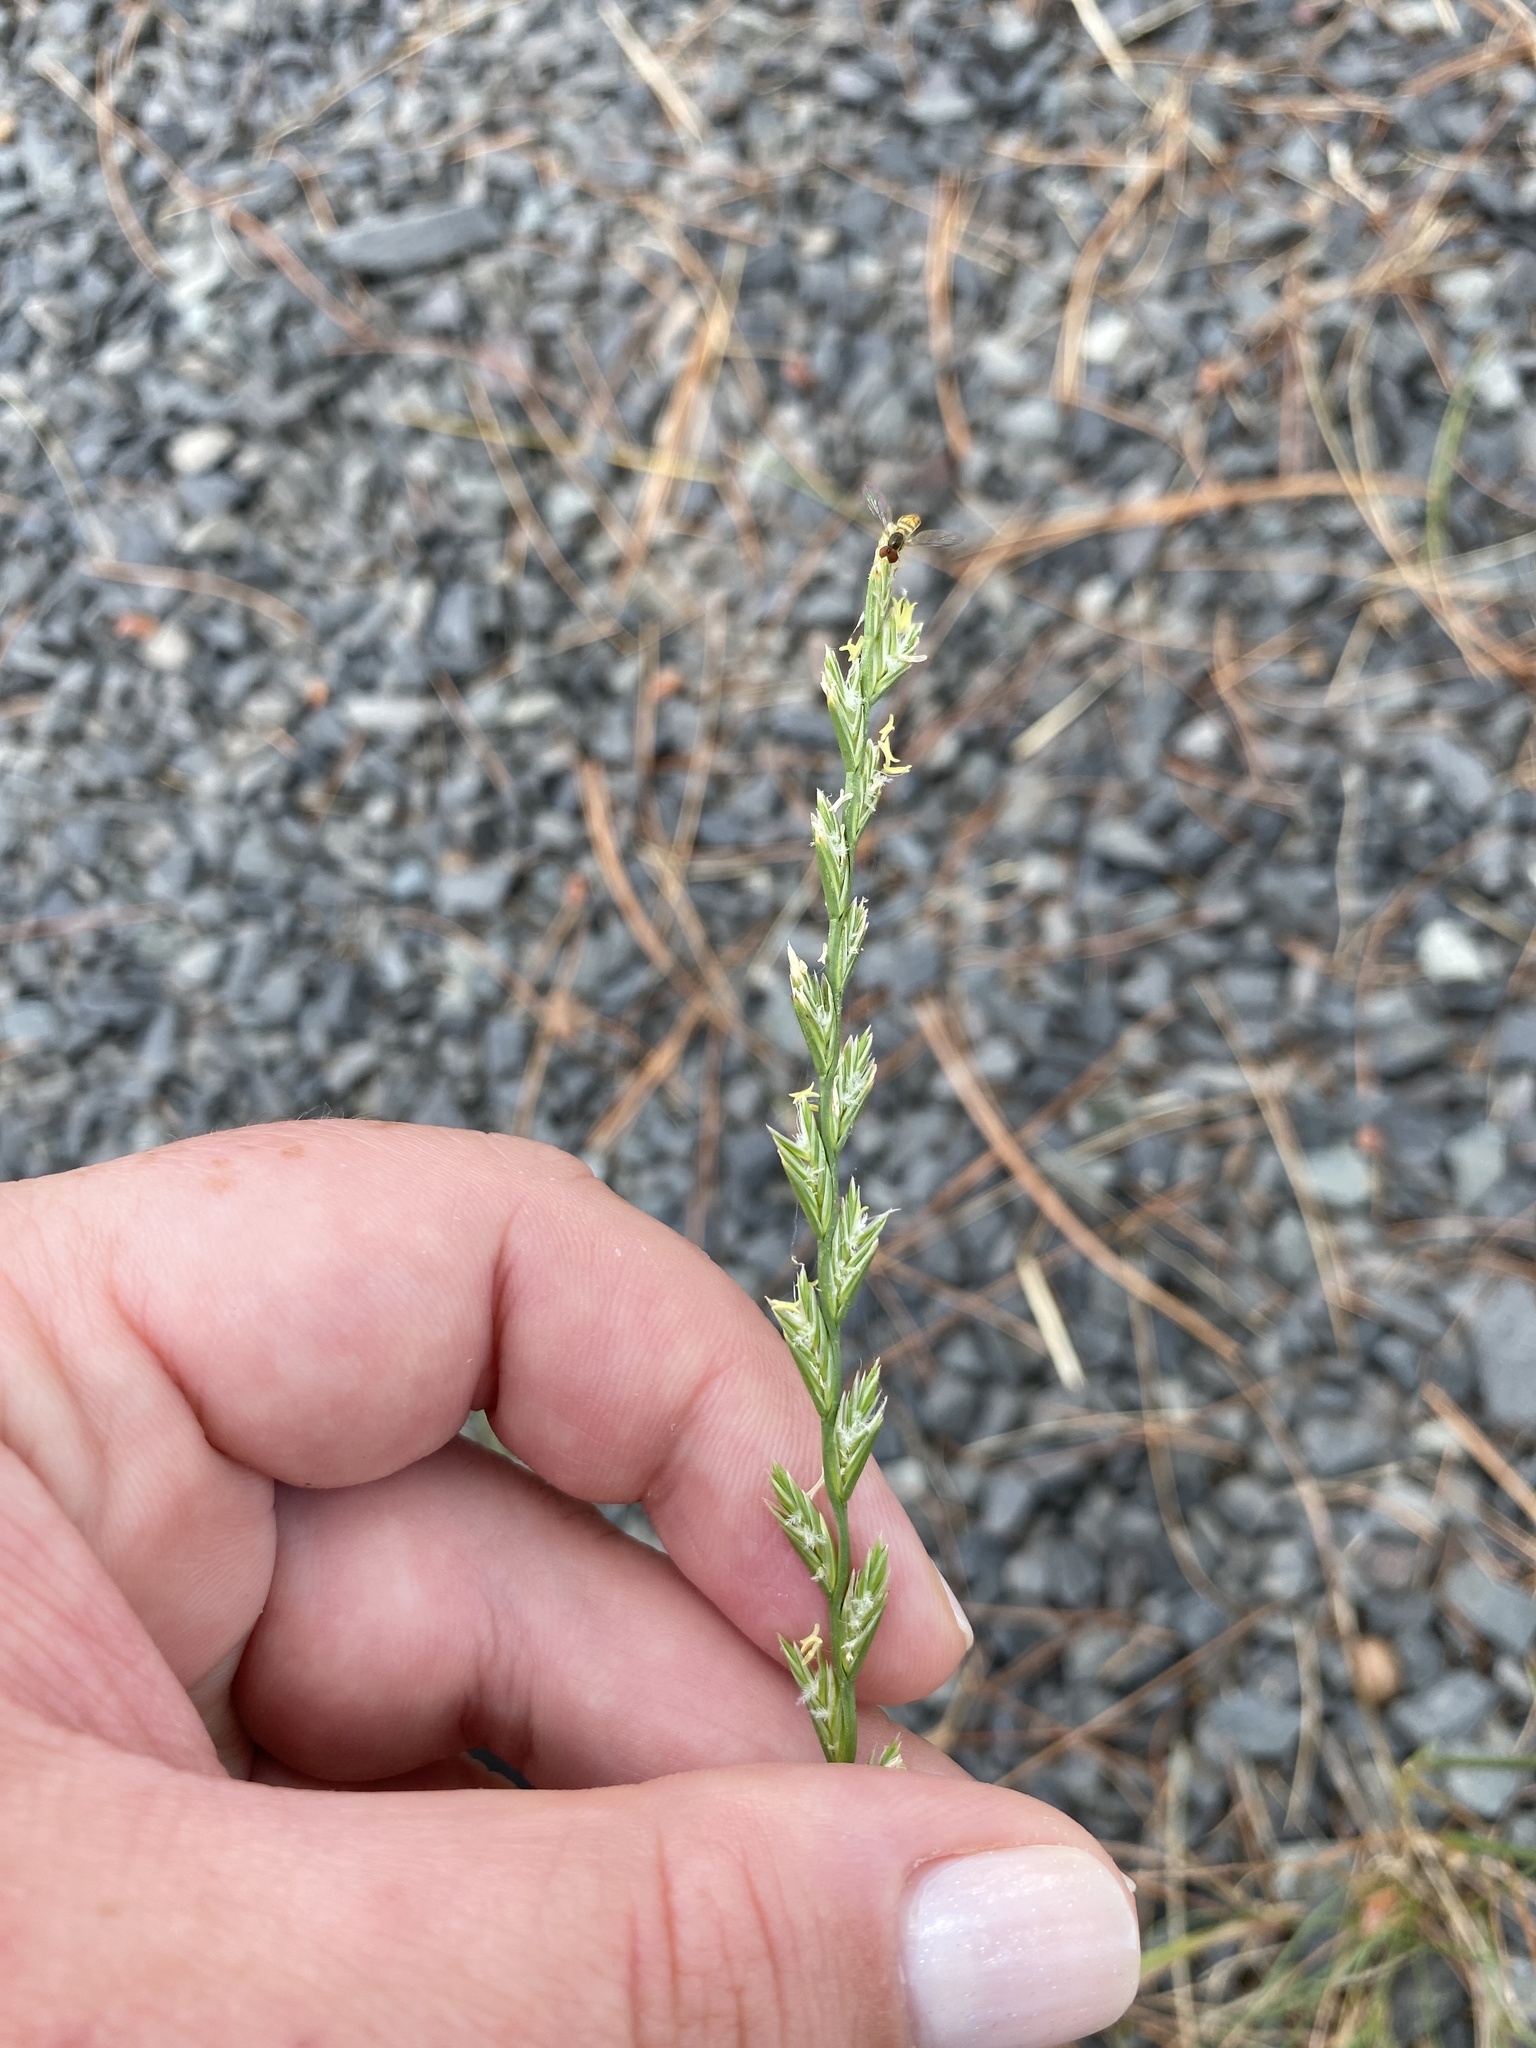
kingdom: Plantae
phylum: Tracheophyta
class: Liliopsida
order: Poales
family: Poaceae
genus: Lolium
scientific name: Lolium perenne
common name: Perennial ryegrass
